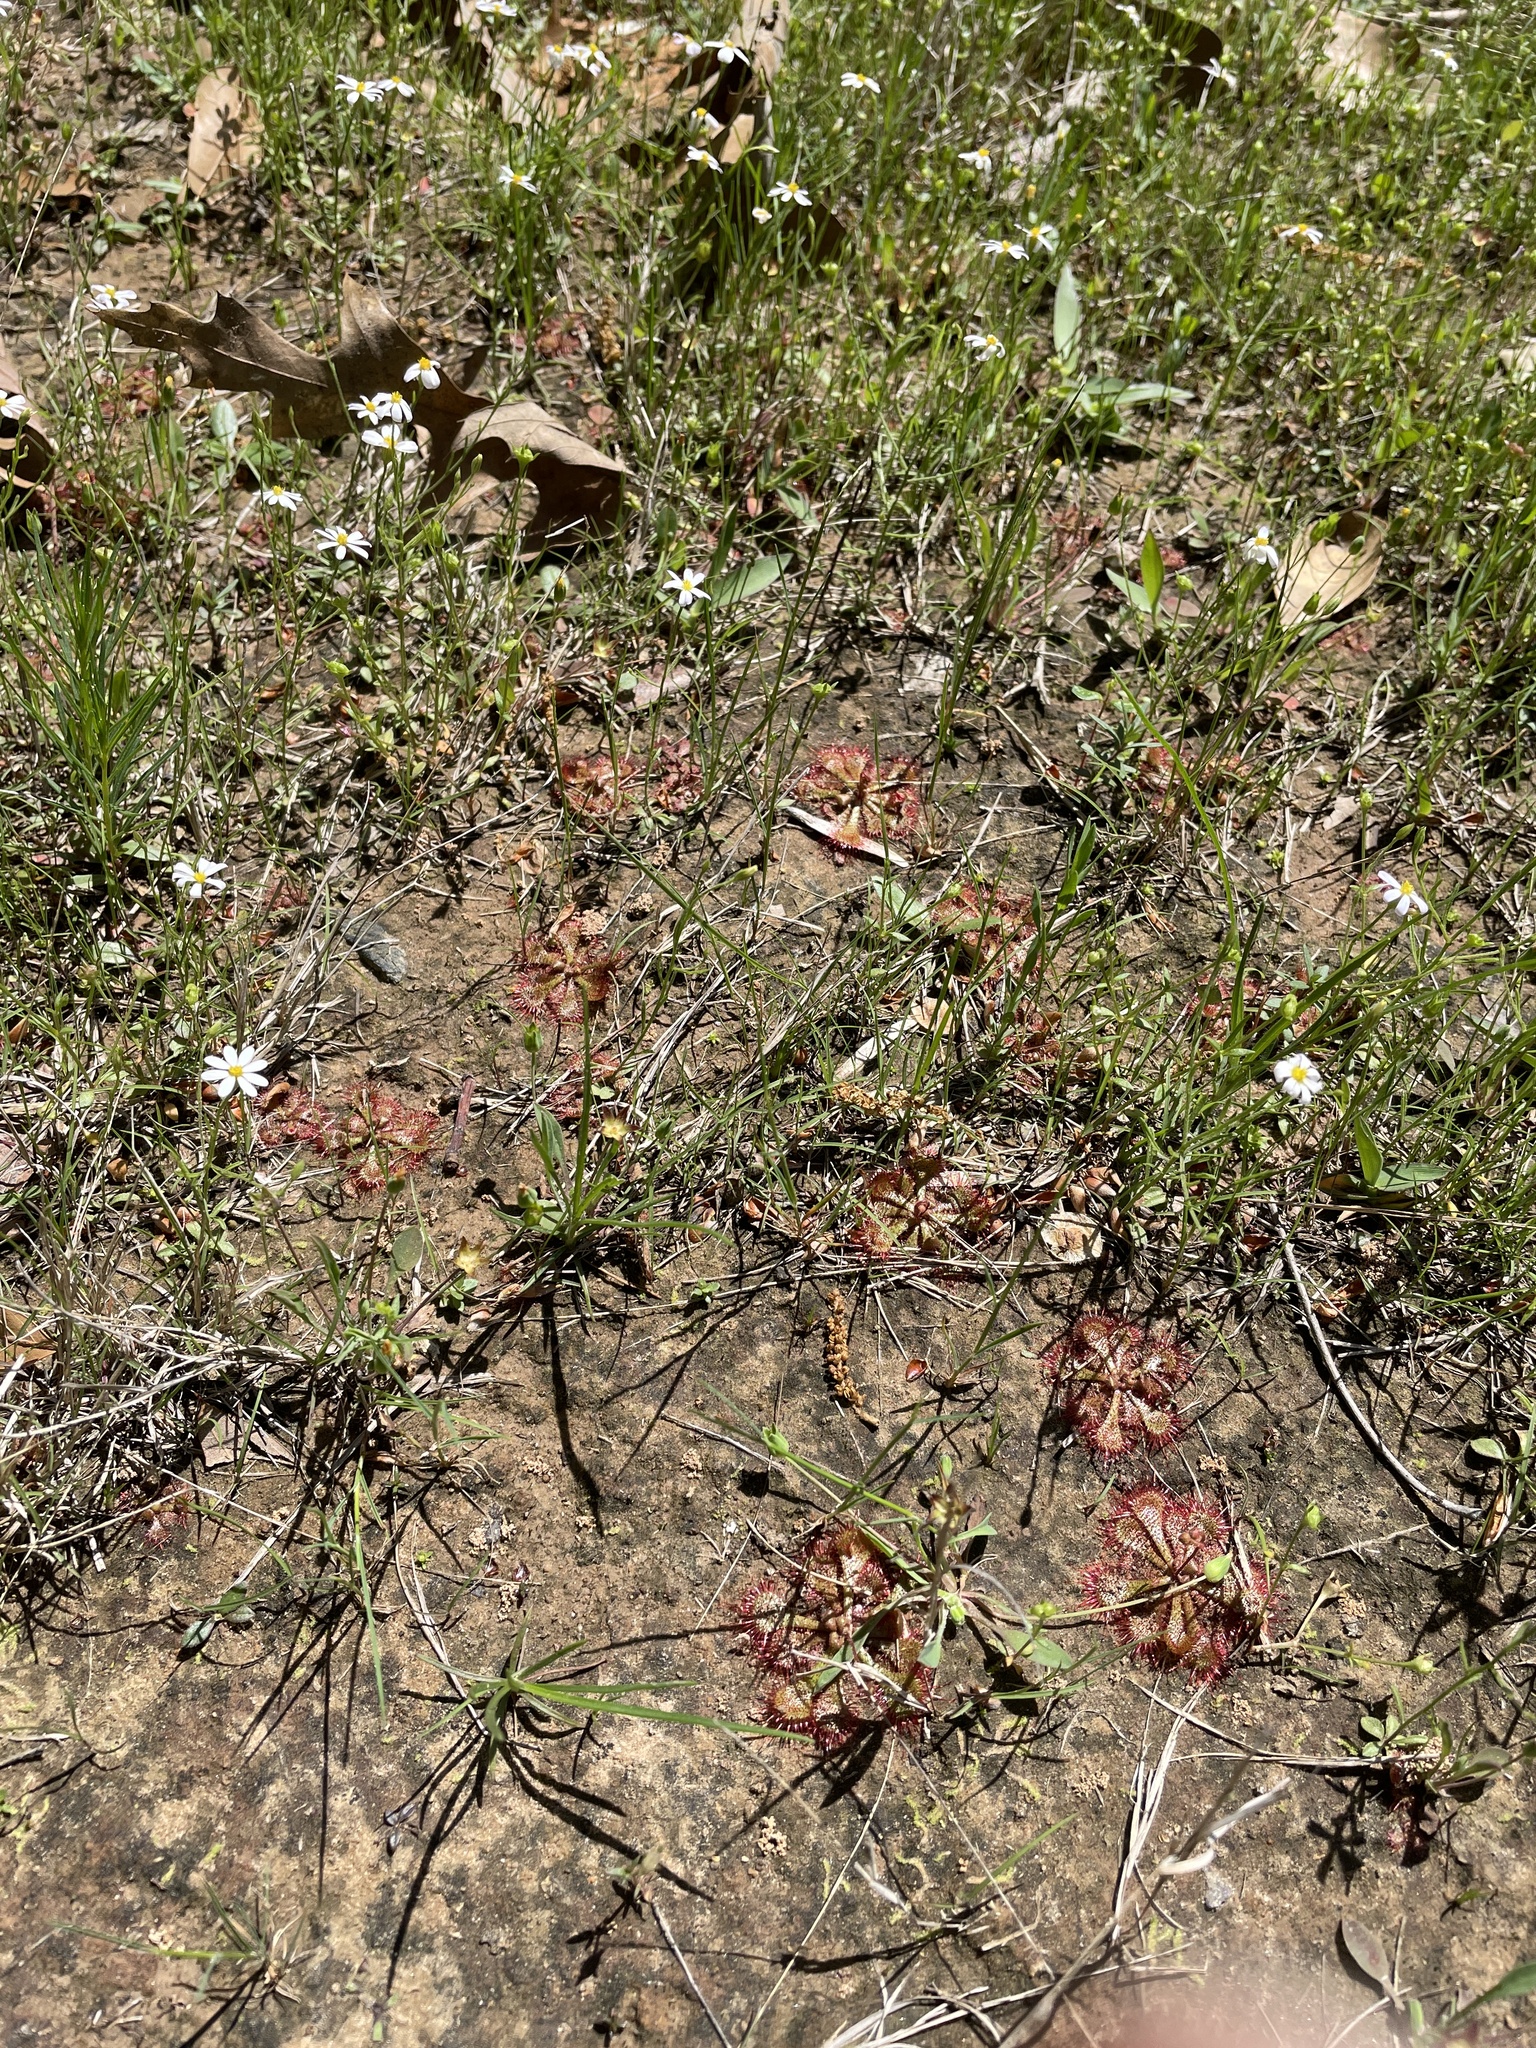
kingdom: Plantae
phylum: Tracheophyta
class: Magnoliopsida
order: Caryophyllales
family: Droseraceae
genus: Drosera
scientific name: Drosera brevifolia
